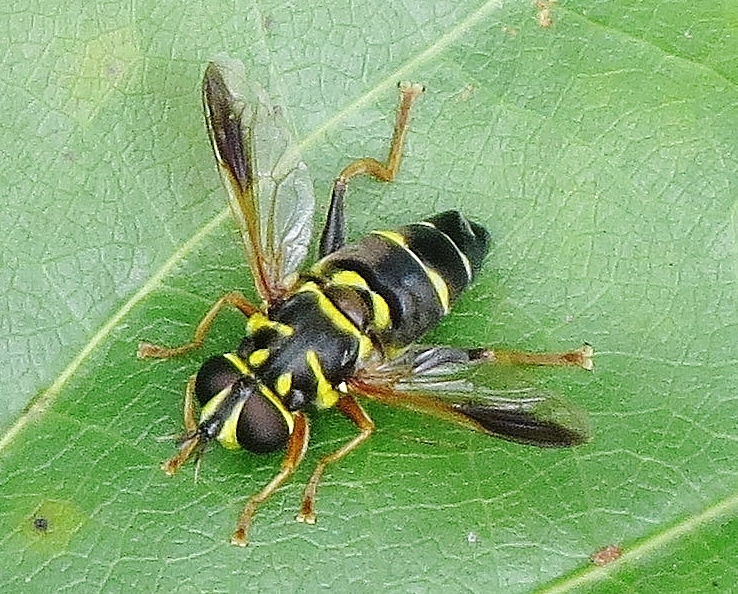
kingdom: Animalia
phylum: Arthropoda
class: Insecta
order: Diptera
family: Syrphidae
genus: Meromacrus
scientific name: Meromacrus acutus
